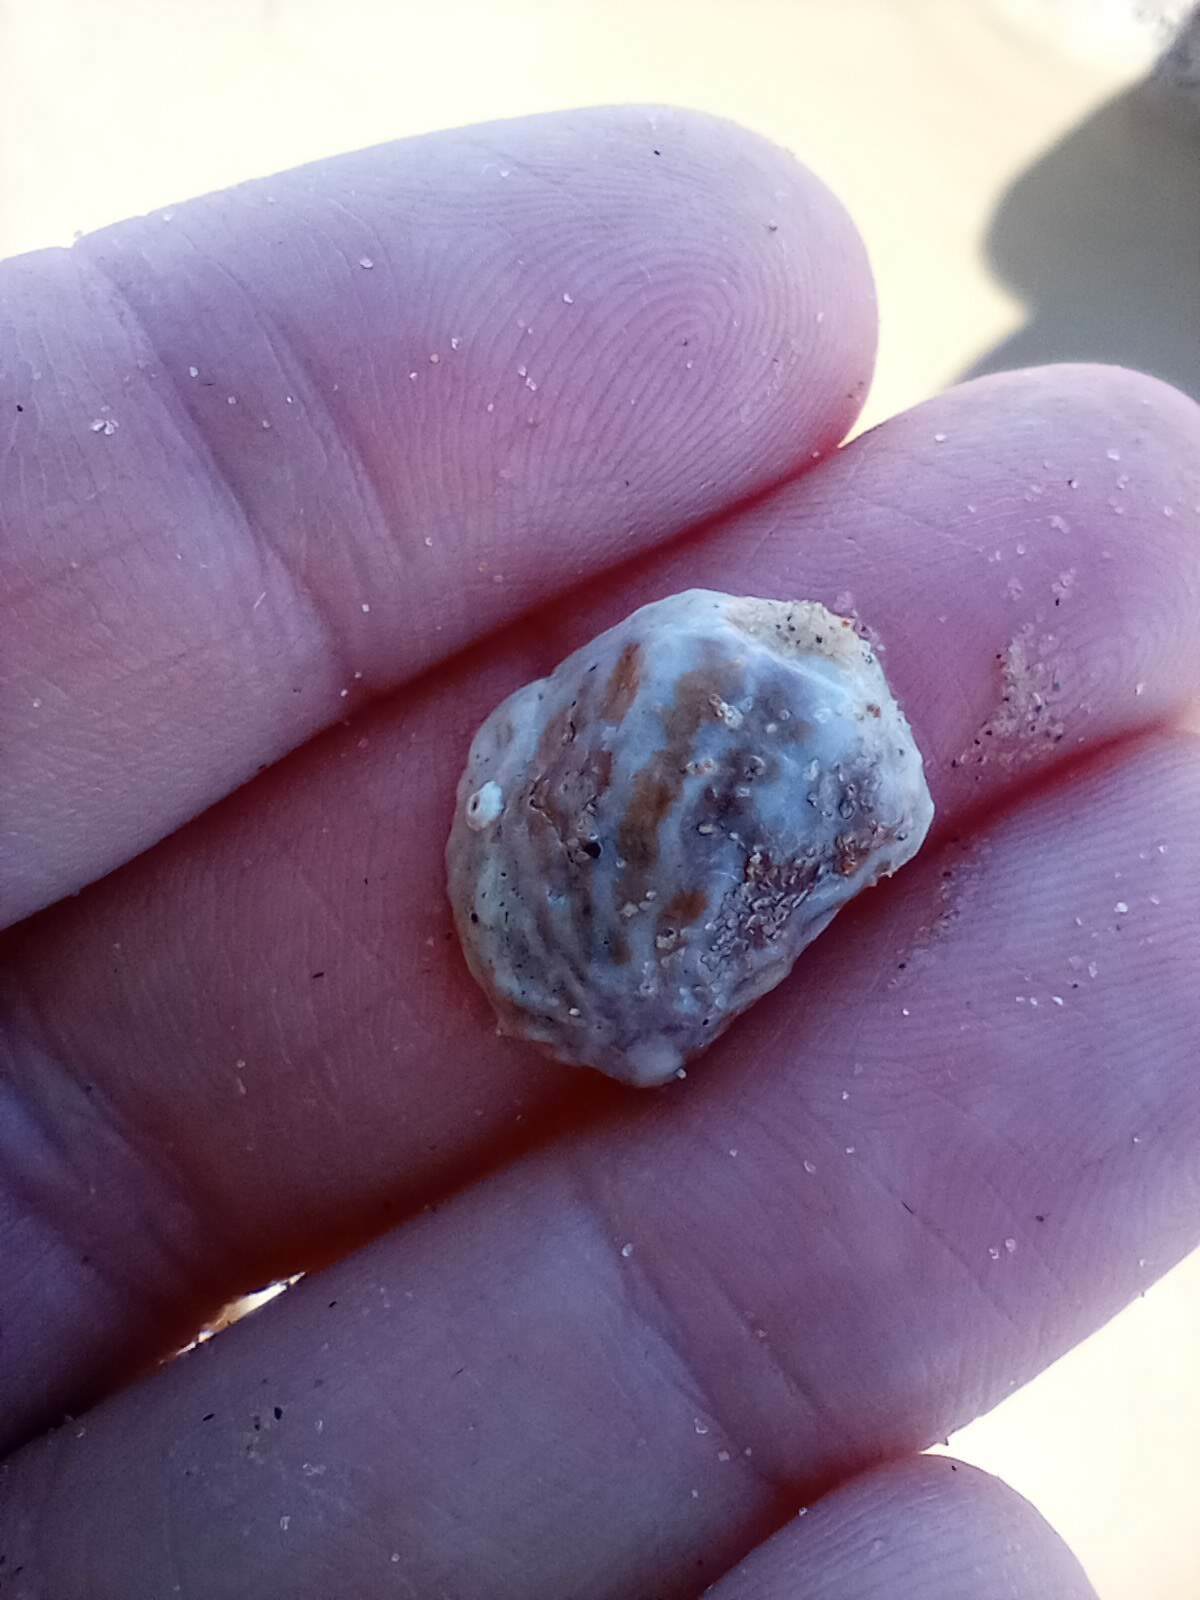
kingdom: Animalia
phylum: Mollusca
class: Gastropoda
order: Littorinimorpha
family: Calyptraeidae
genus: Crepipatella
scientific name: Crepipatella lingulata
